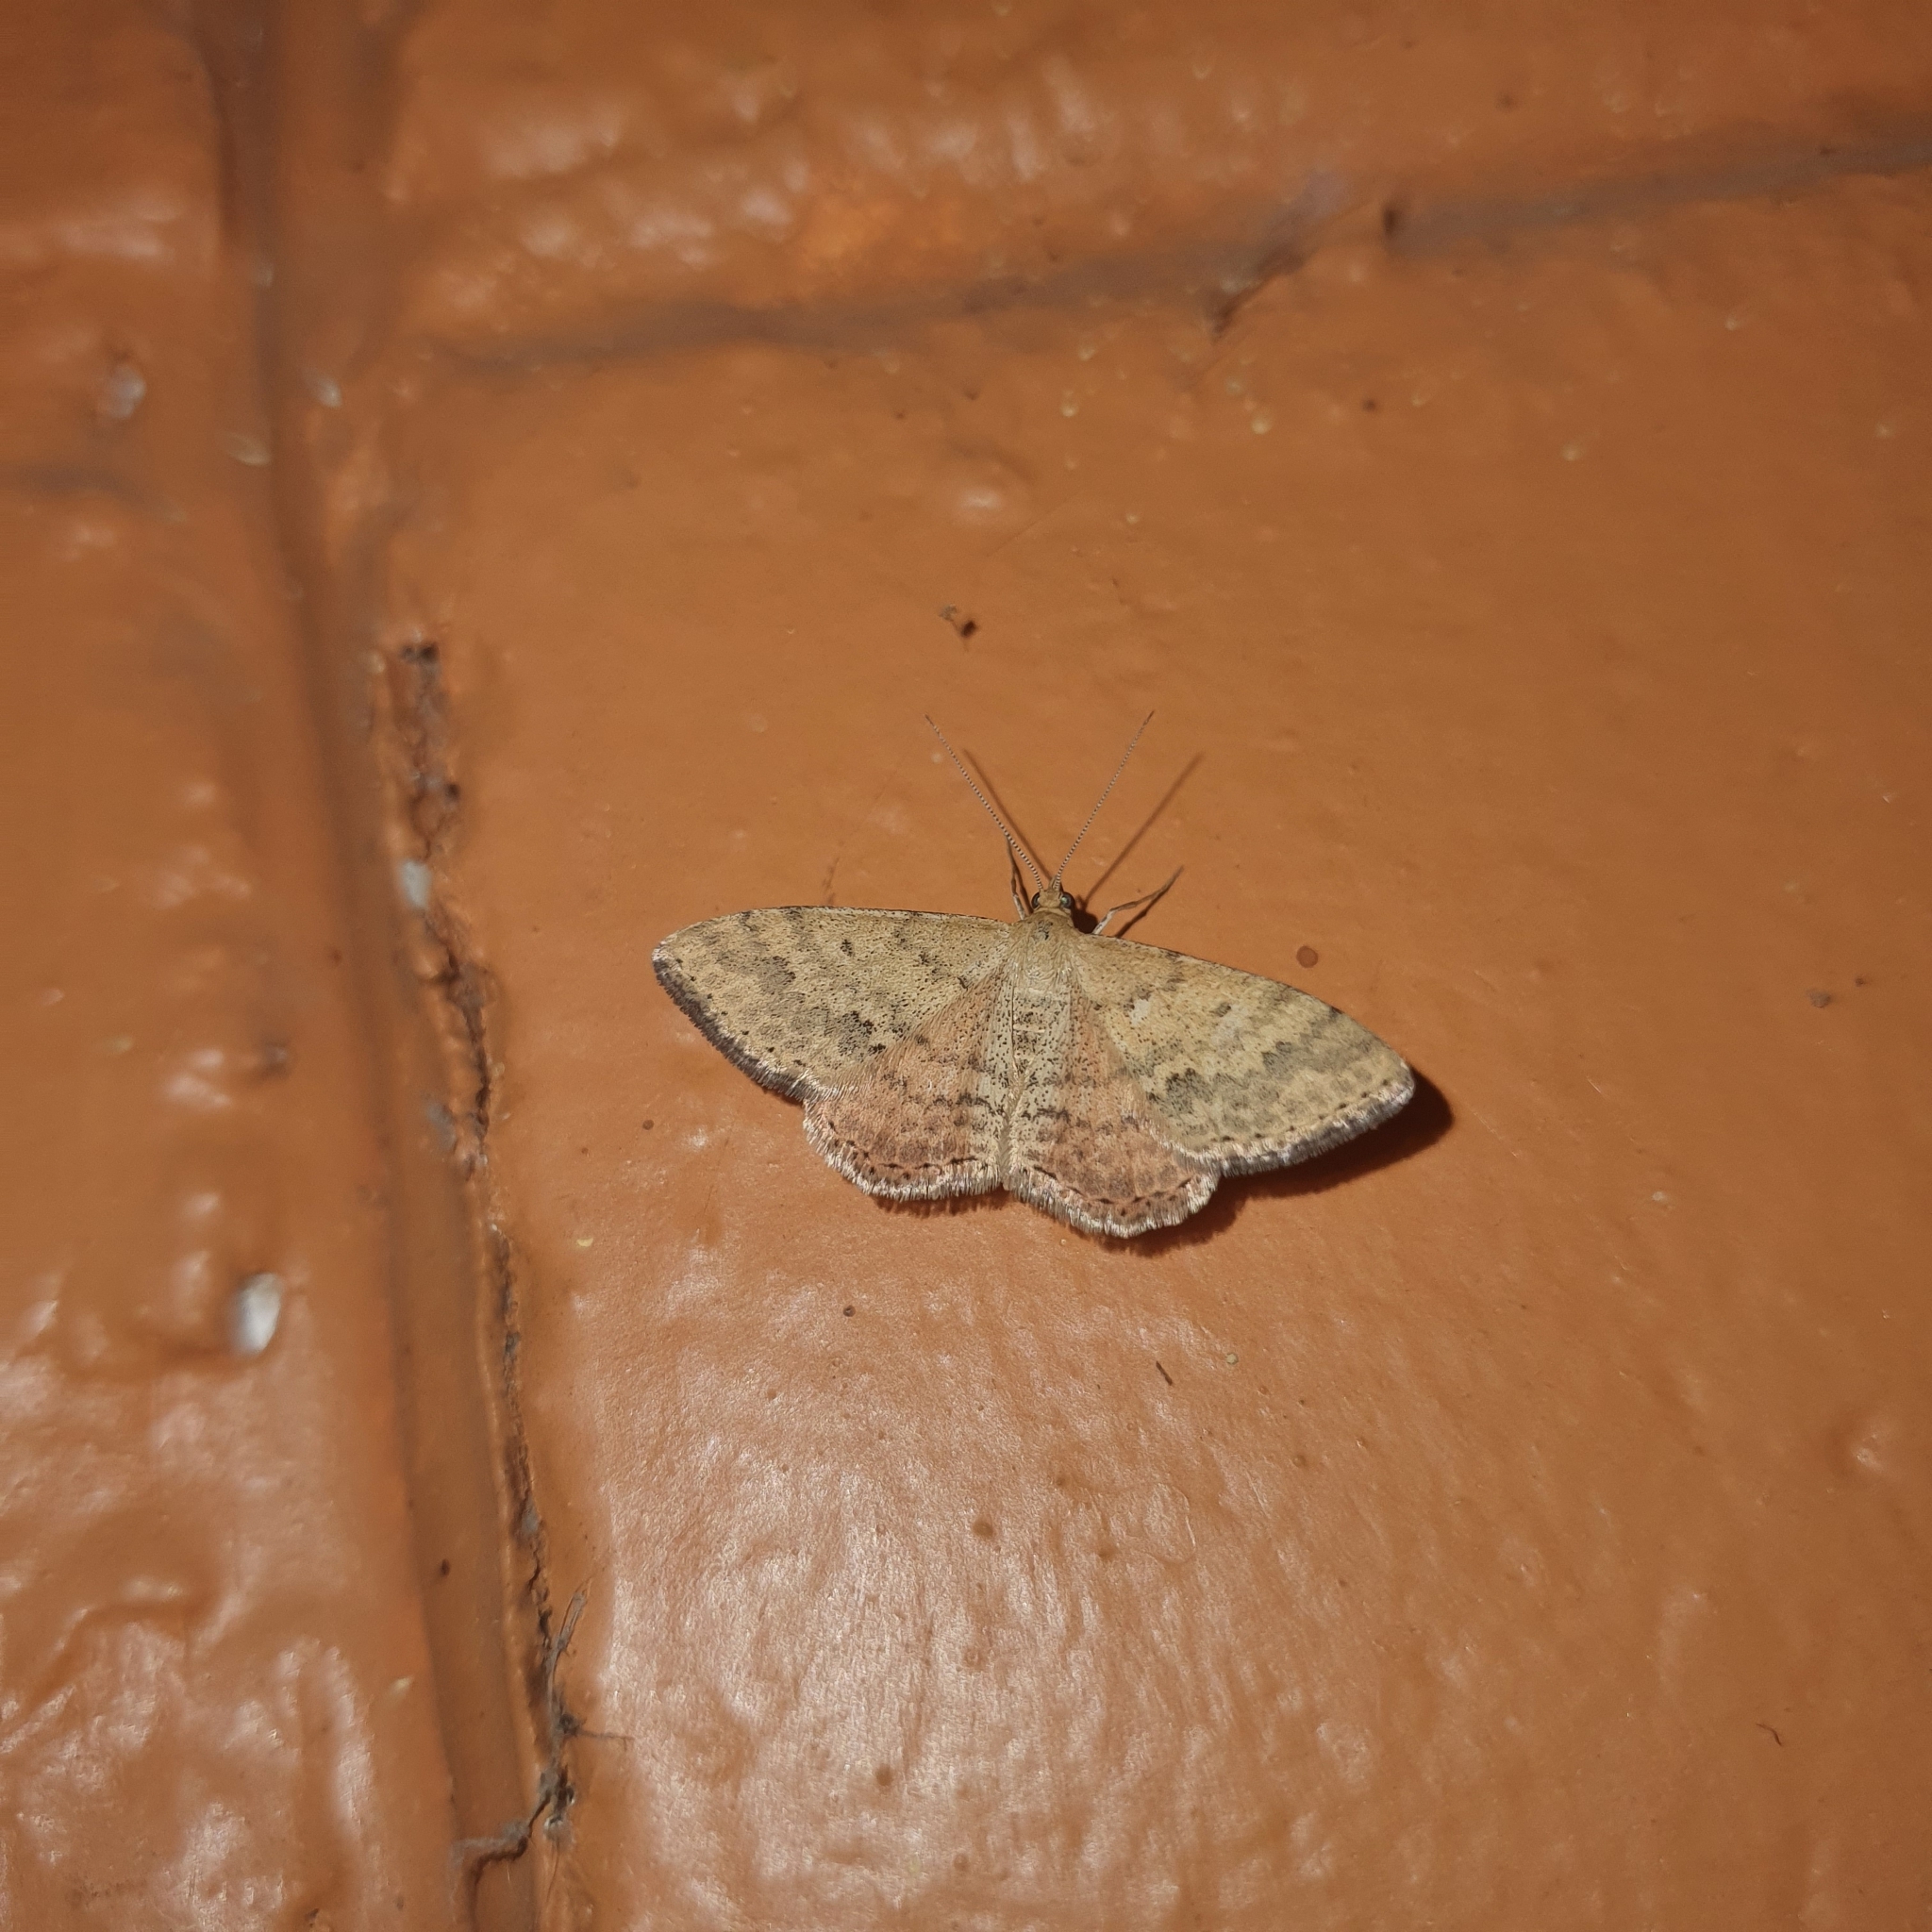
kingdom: Animalia
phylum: Arthropoda
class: Insecta
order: Lepidoptera
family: Geometridae
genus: Scopula
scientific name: Scopula rubraria
